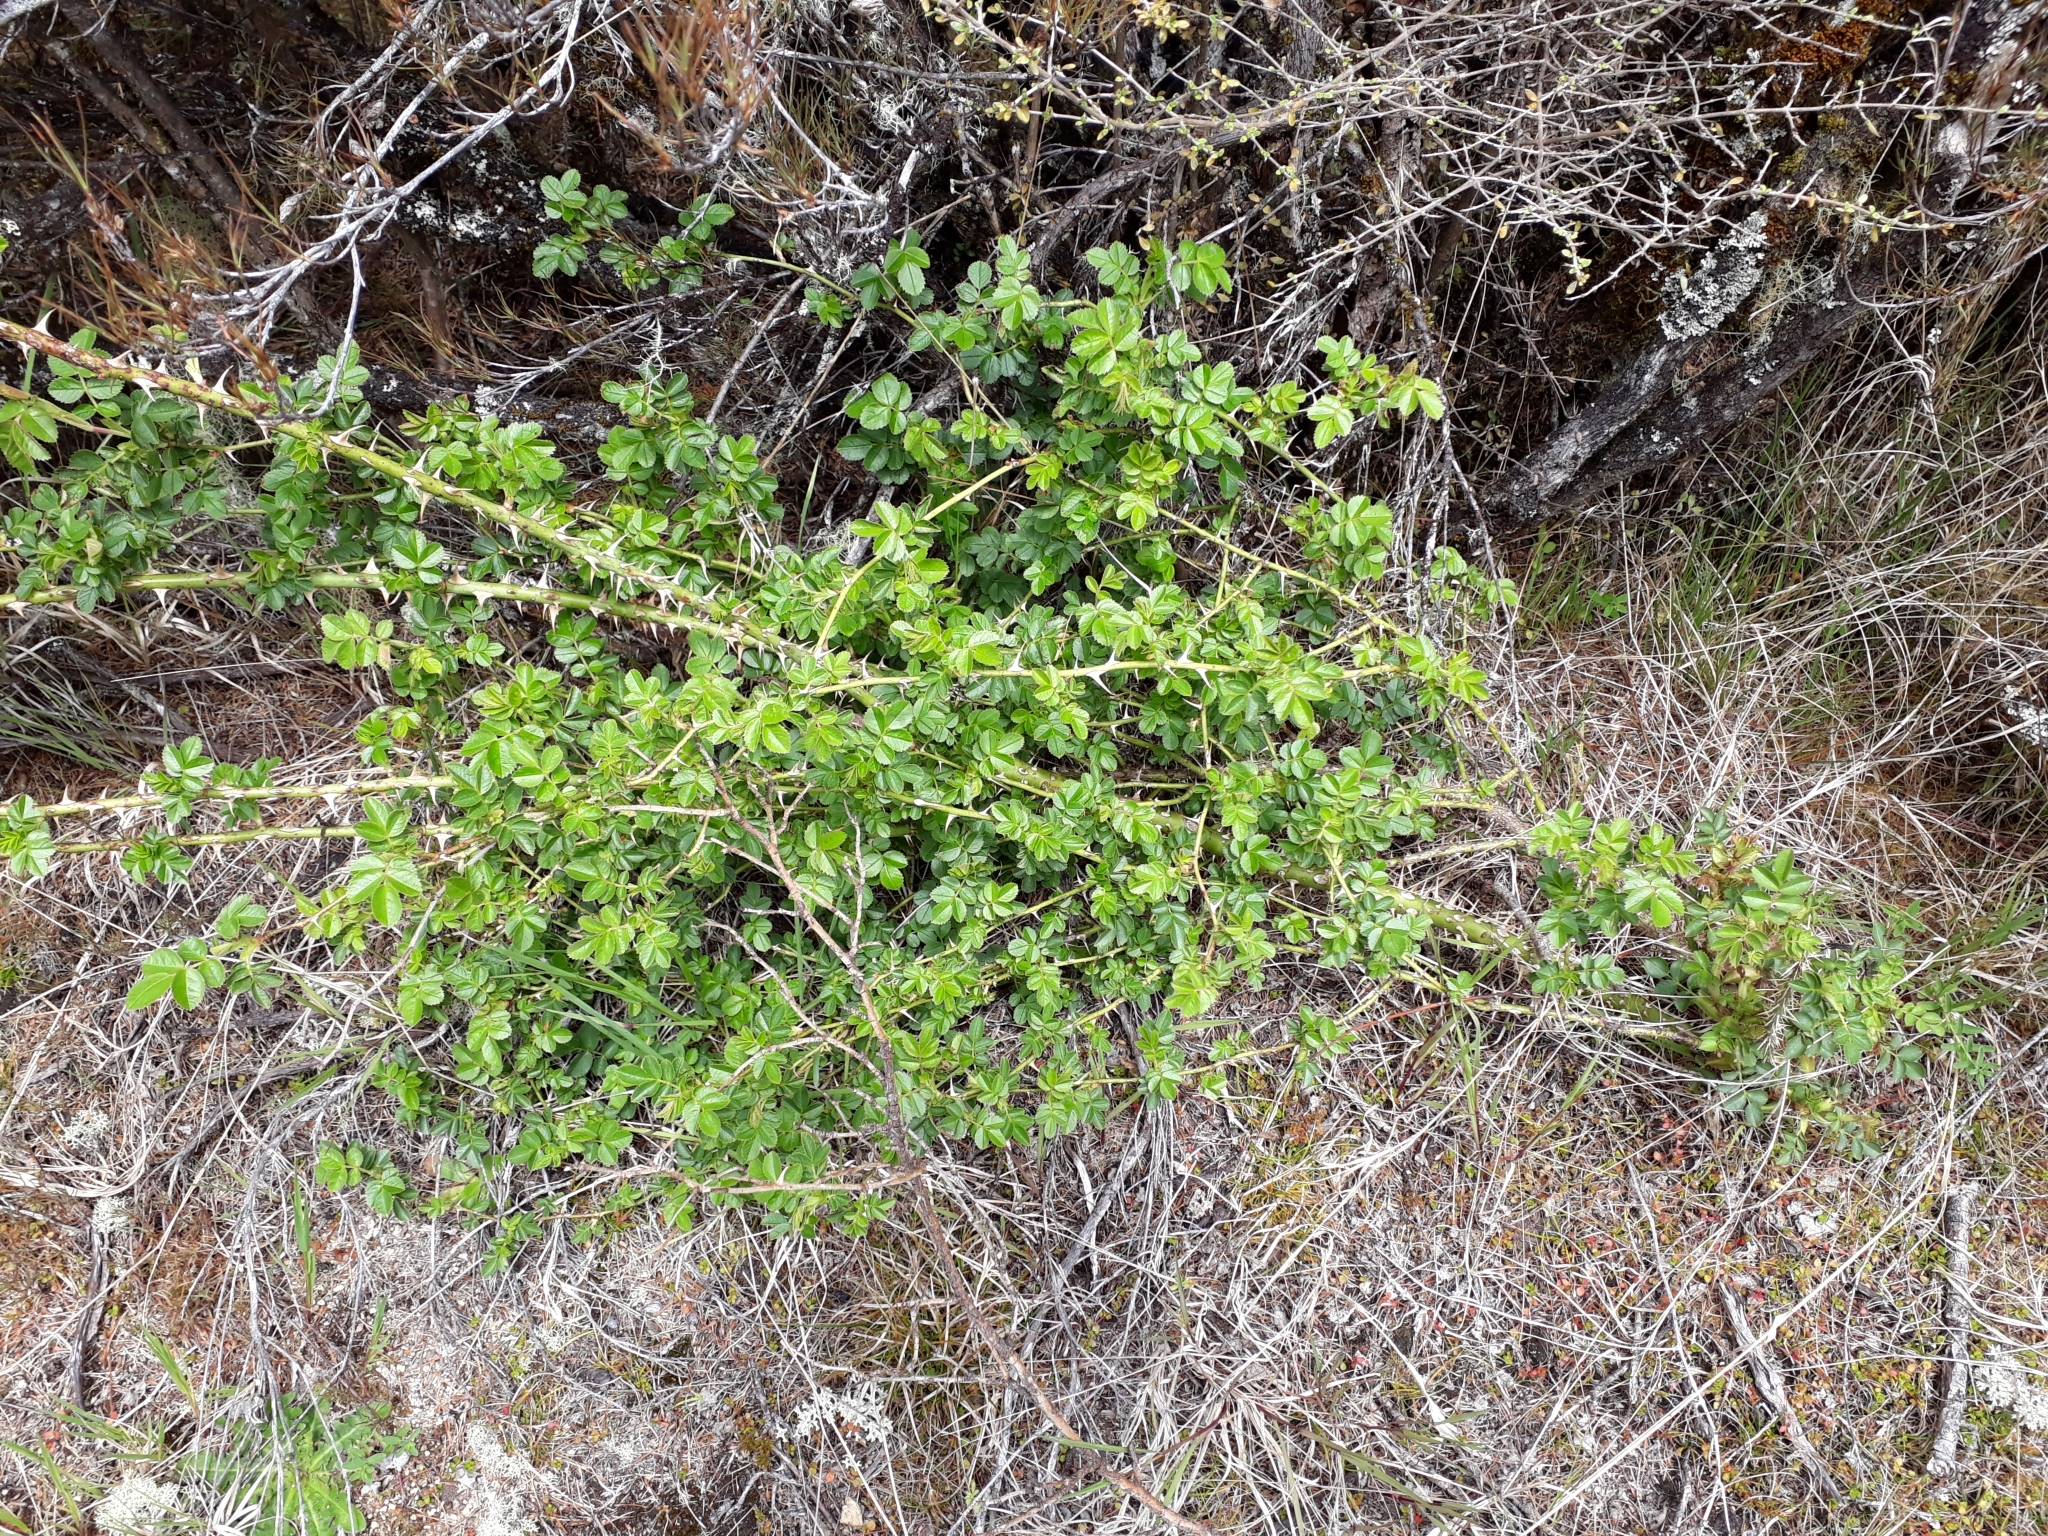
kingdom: Plantae
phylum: Tracheophyta
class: Magnoliopsida
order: Rosales
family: Rosaceae
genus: Rosa
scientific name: Rosa rubiginosa
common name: Sweet-briar
